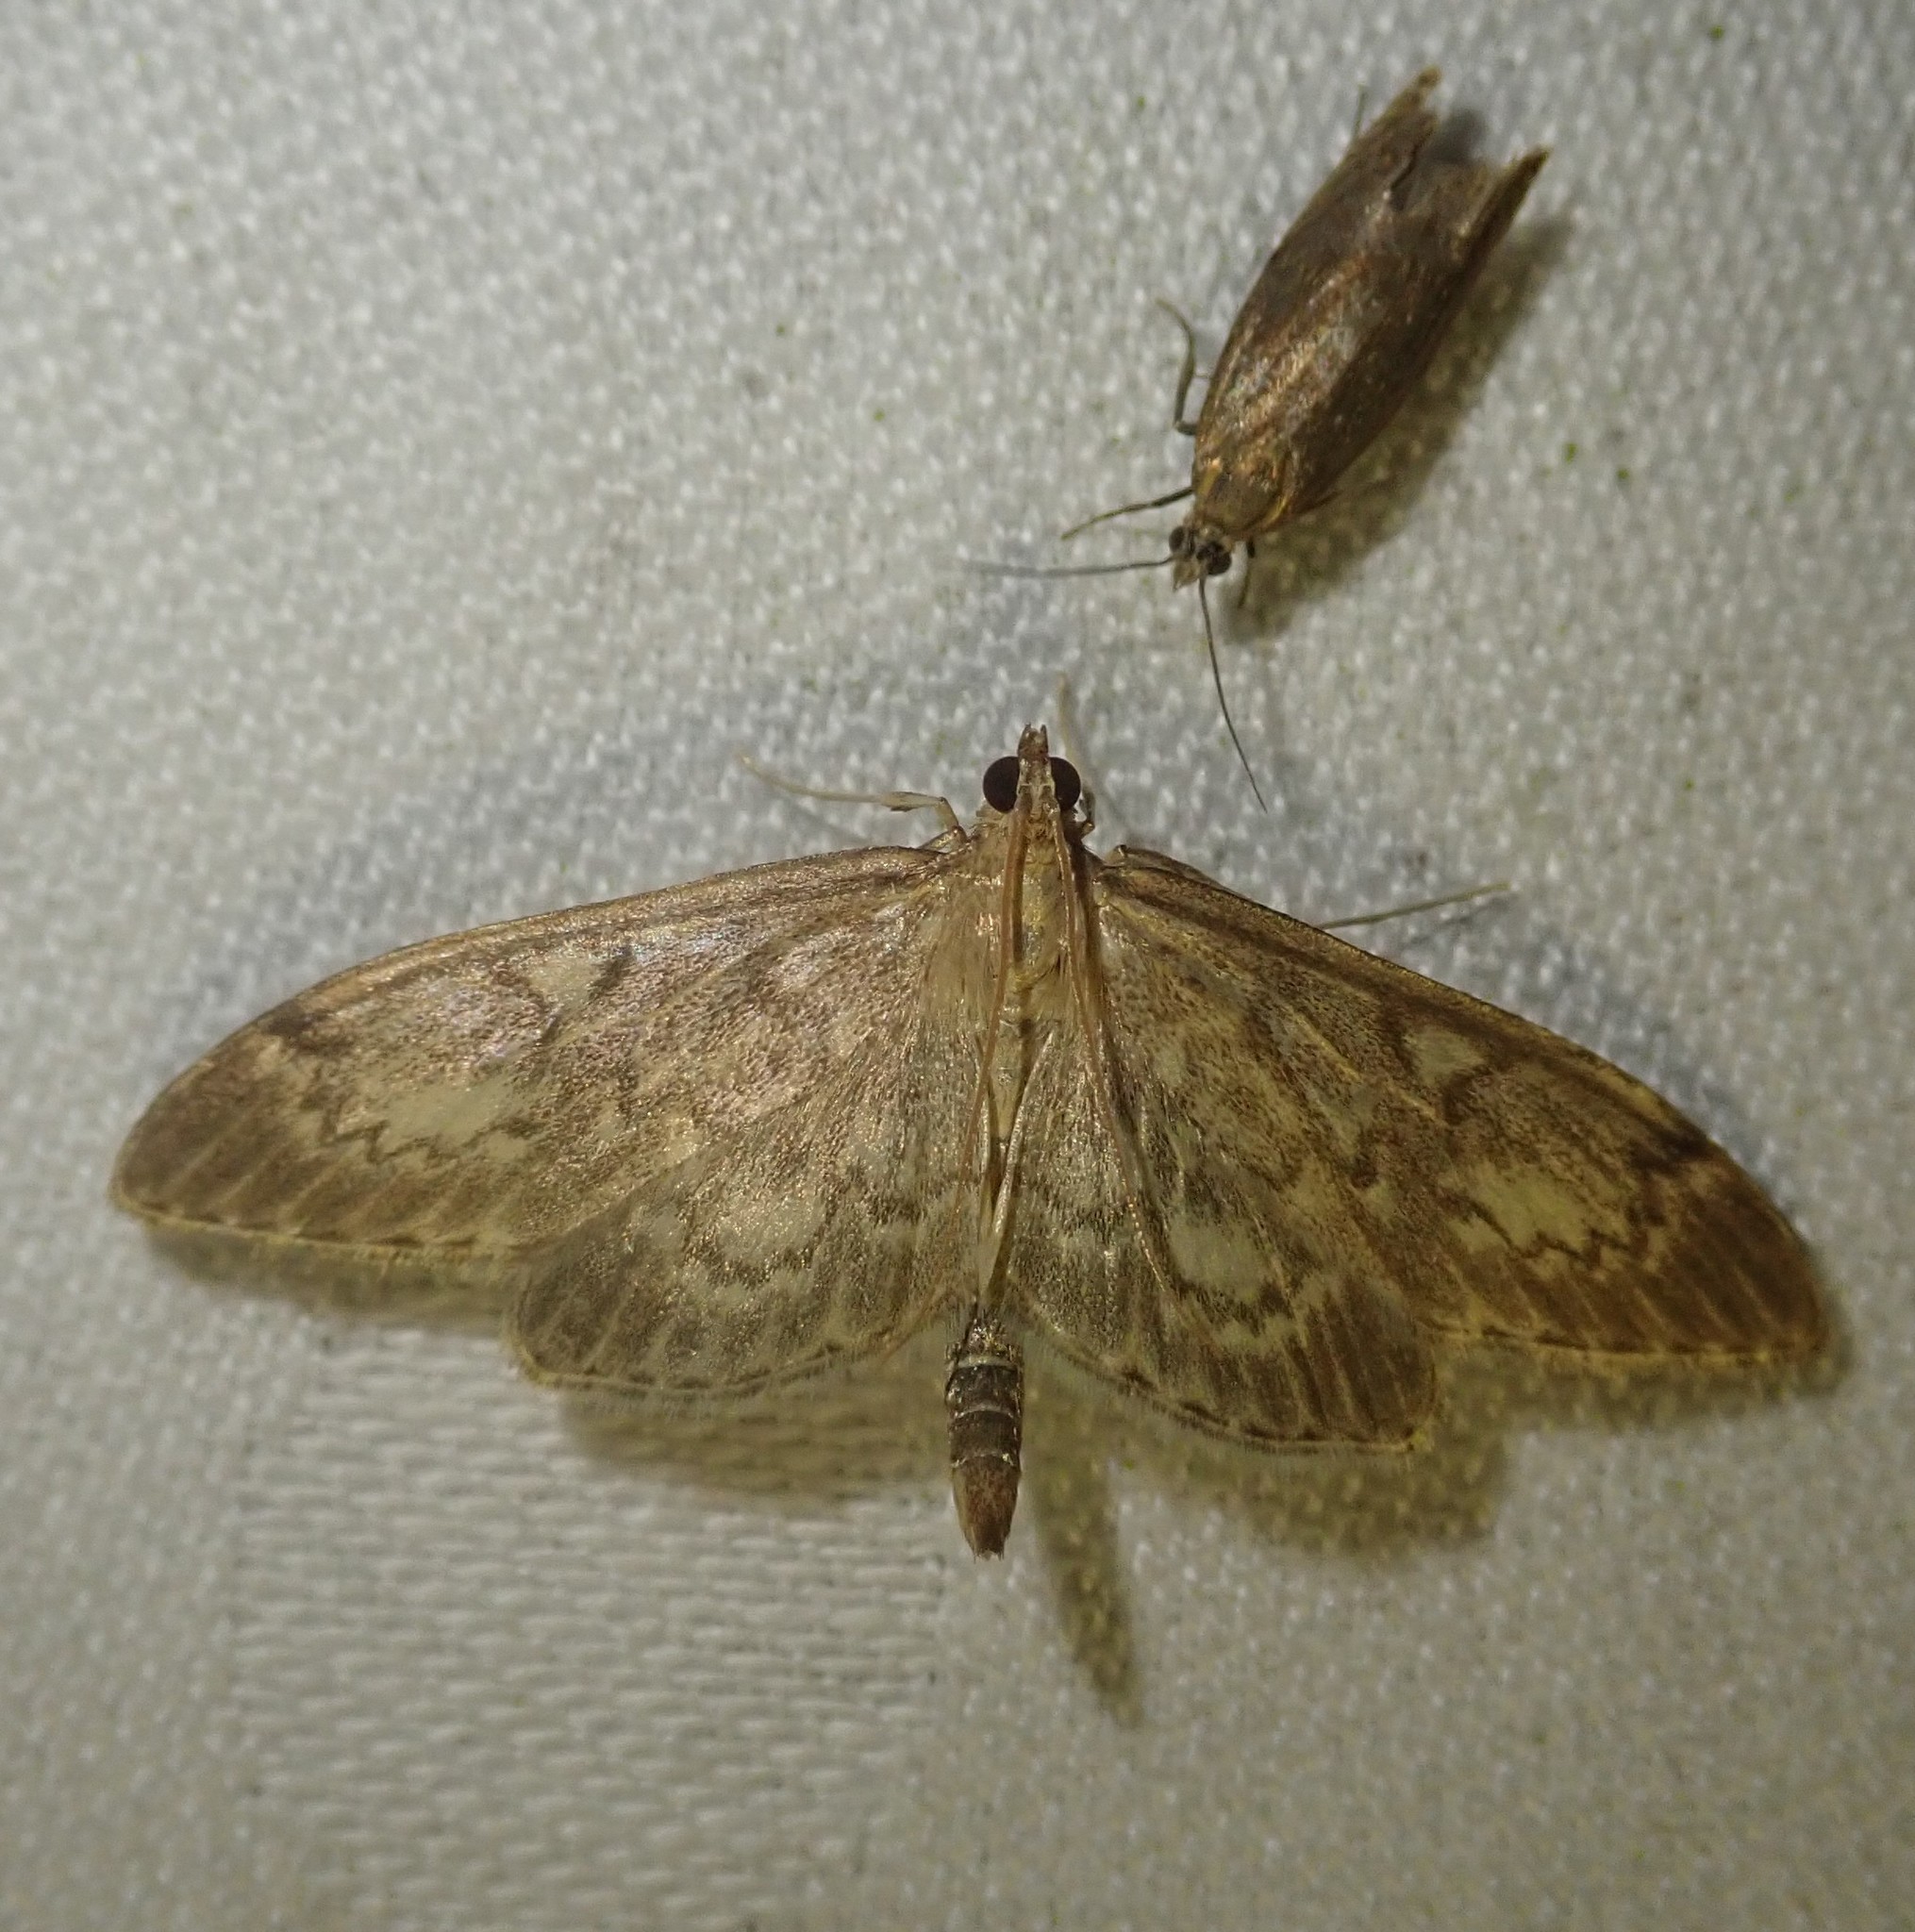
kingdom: Animalia
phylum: Arthropoda
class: Insecta
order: Lepidoptera
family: Crambidae
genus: Anania
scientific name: Anania lancealis
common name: Long-winged pearl
